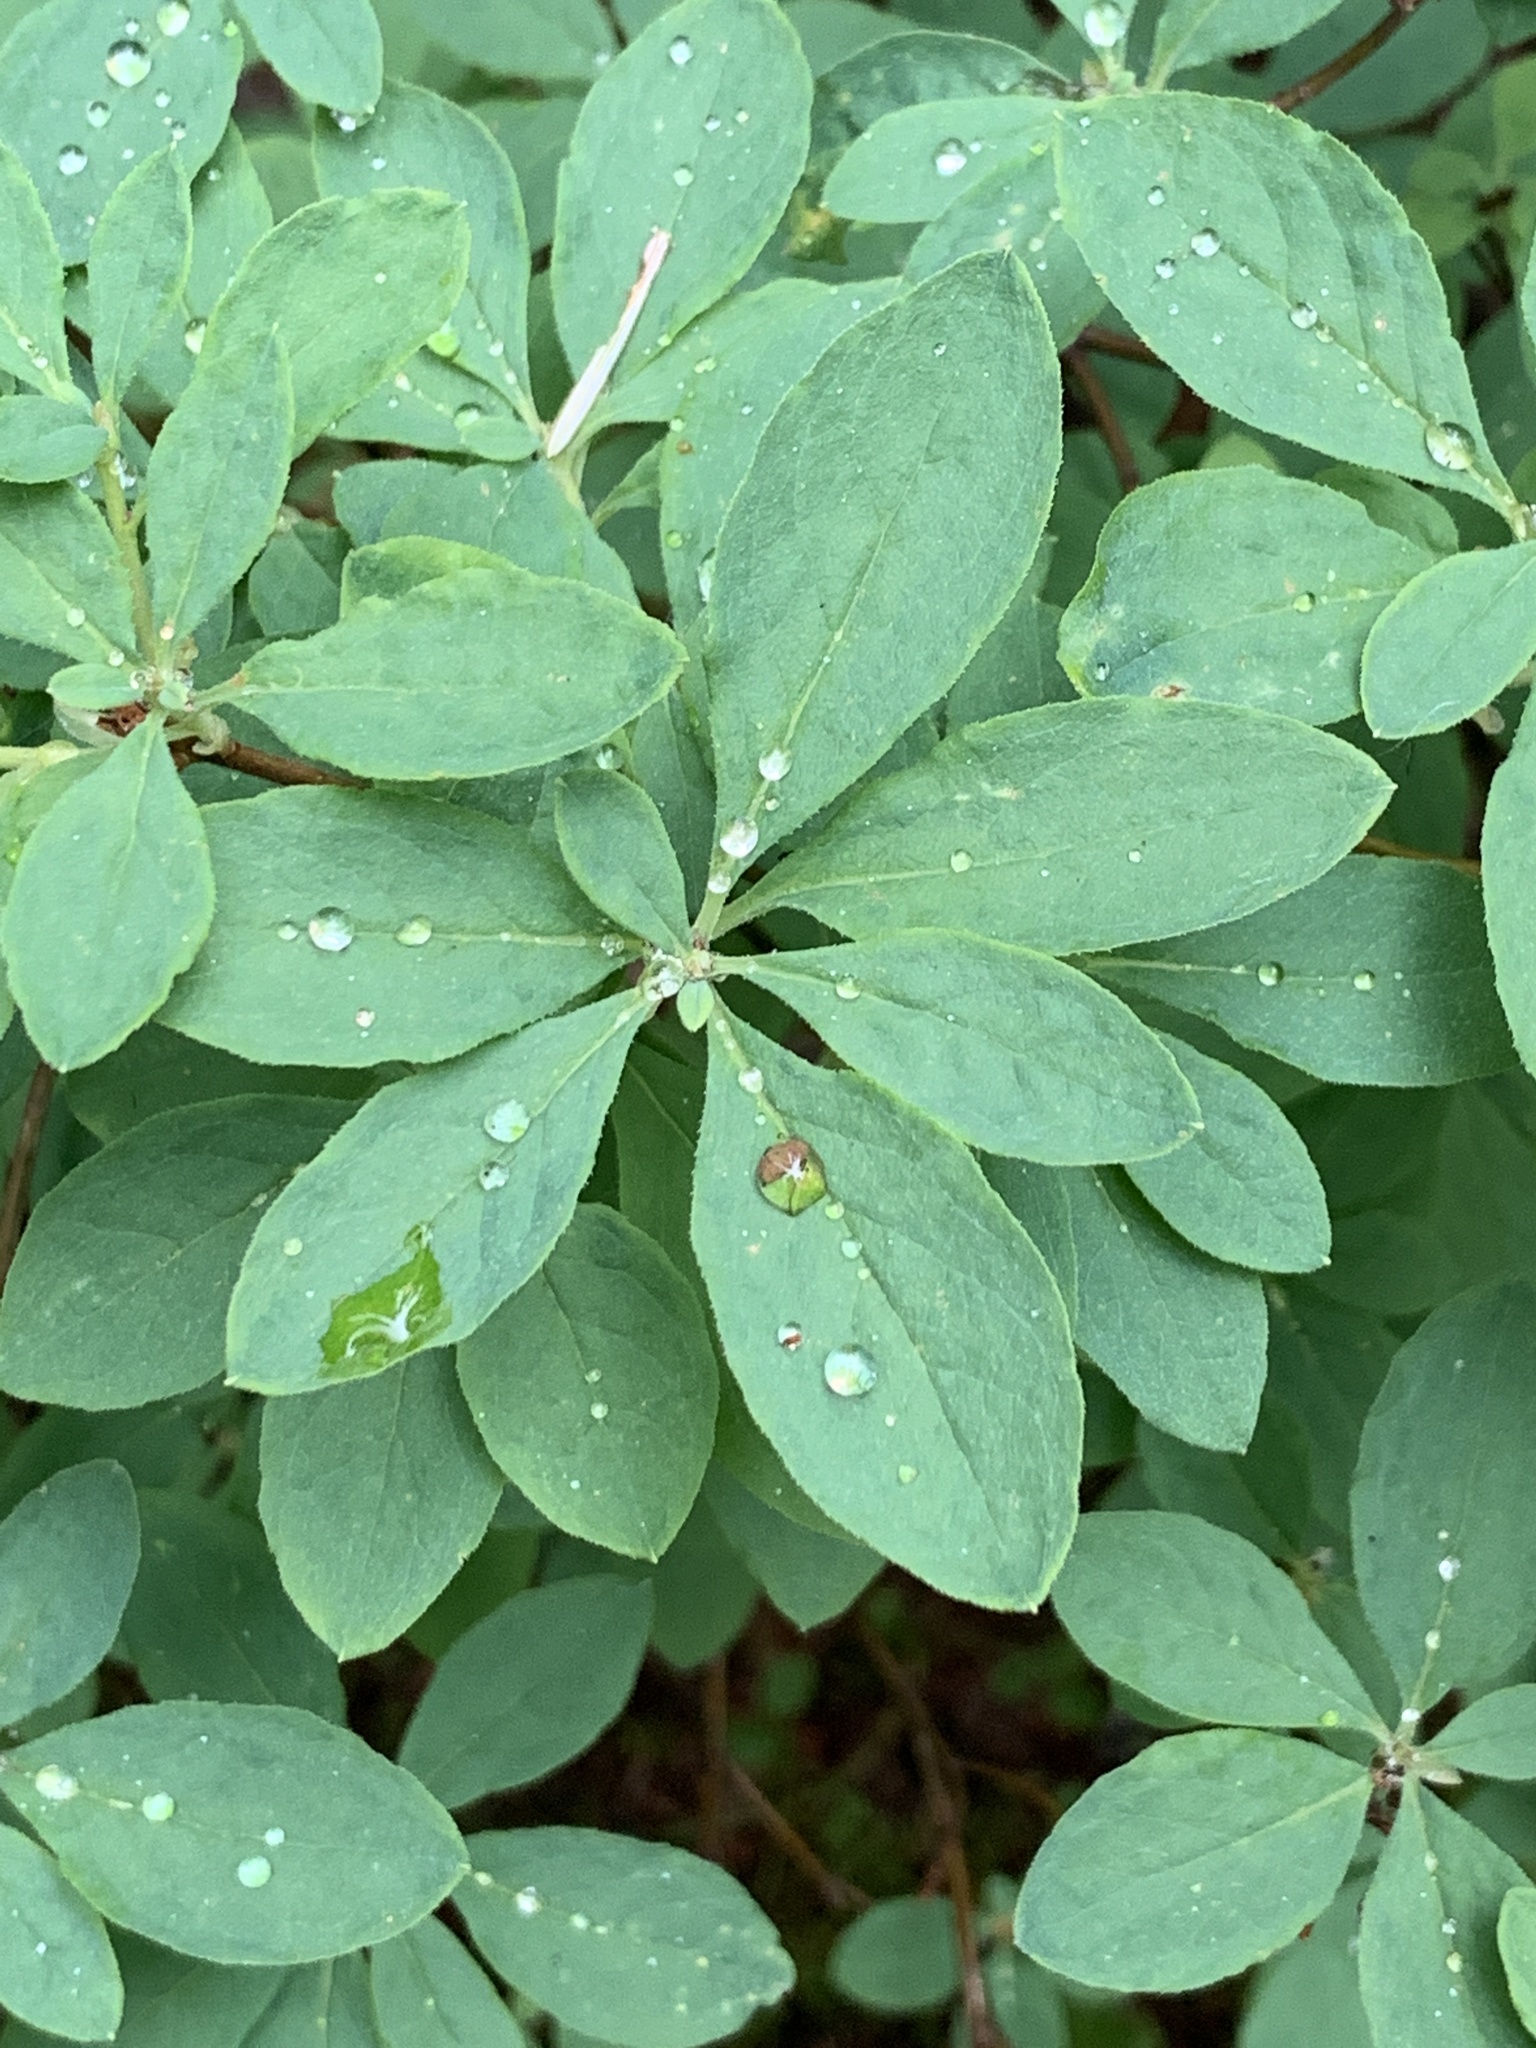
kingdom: Plantae
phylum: Tracheophyta
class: Magnoliopsida
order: Ericales
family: Ericaceae
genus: Rhododendron
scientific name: Rhododendron menziesii
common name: Pacific menziesia
